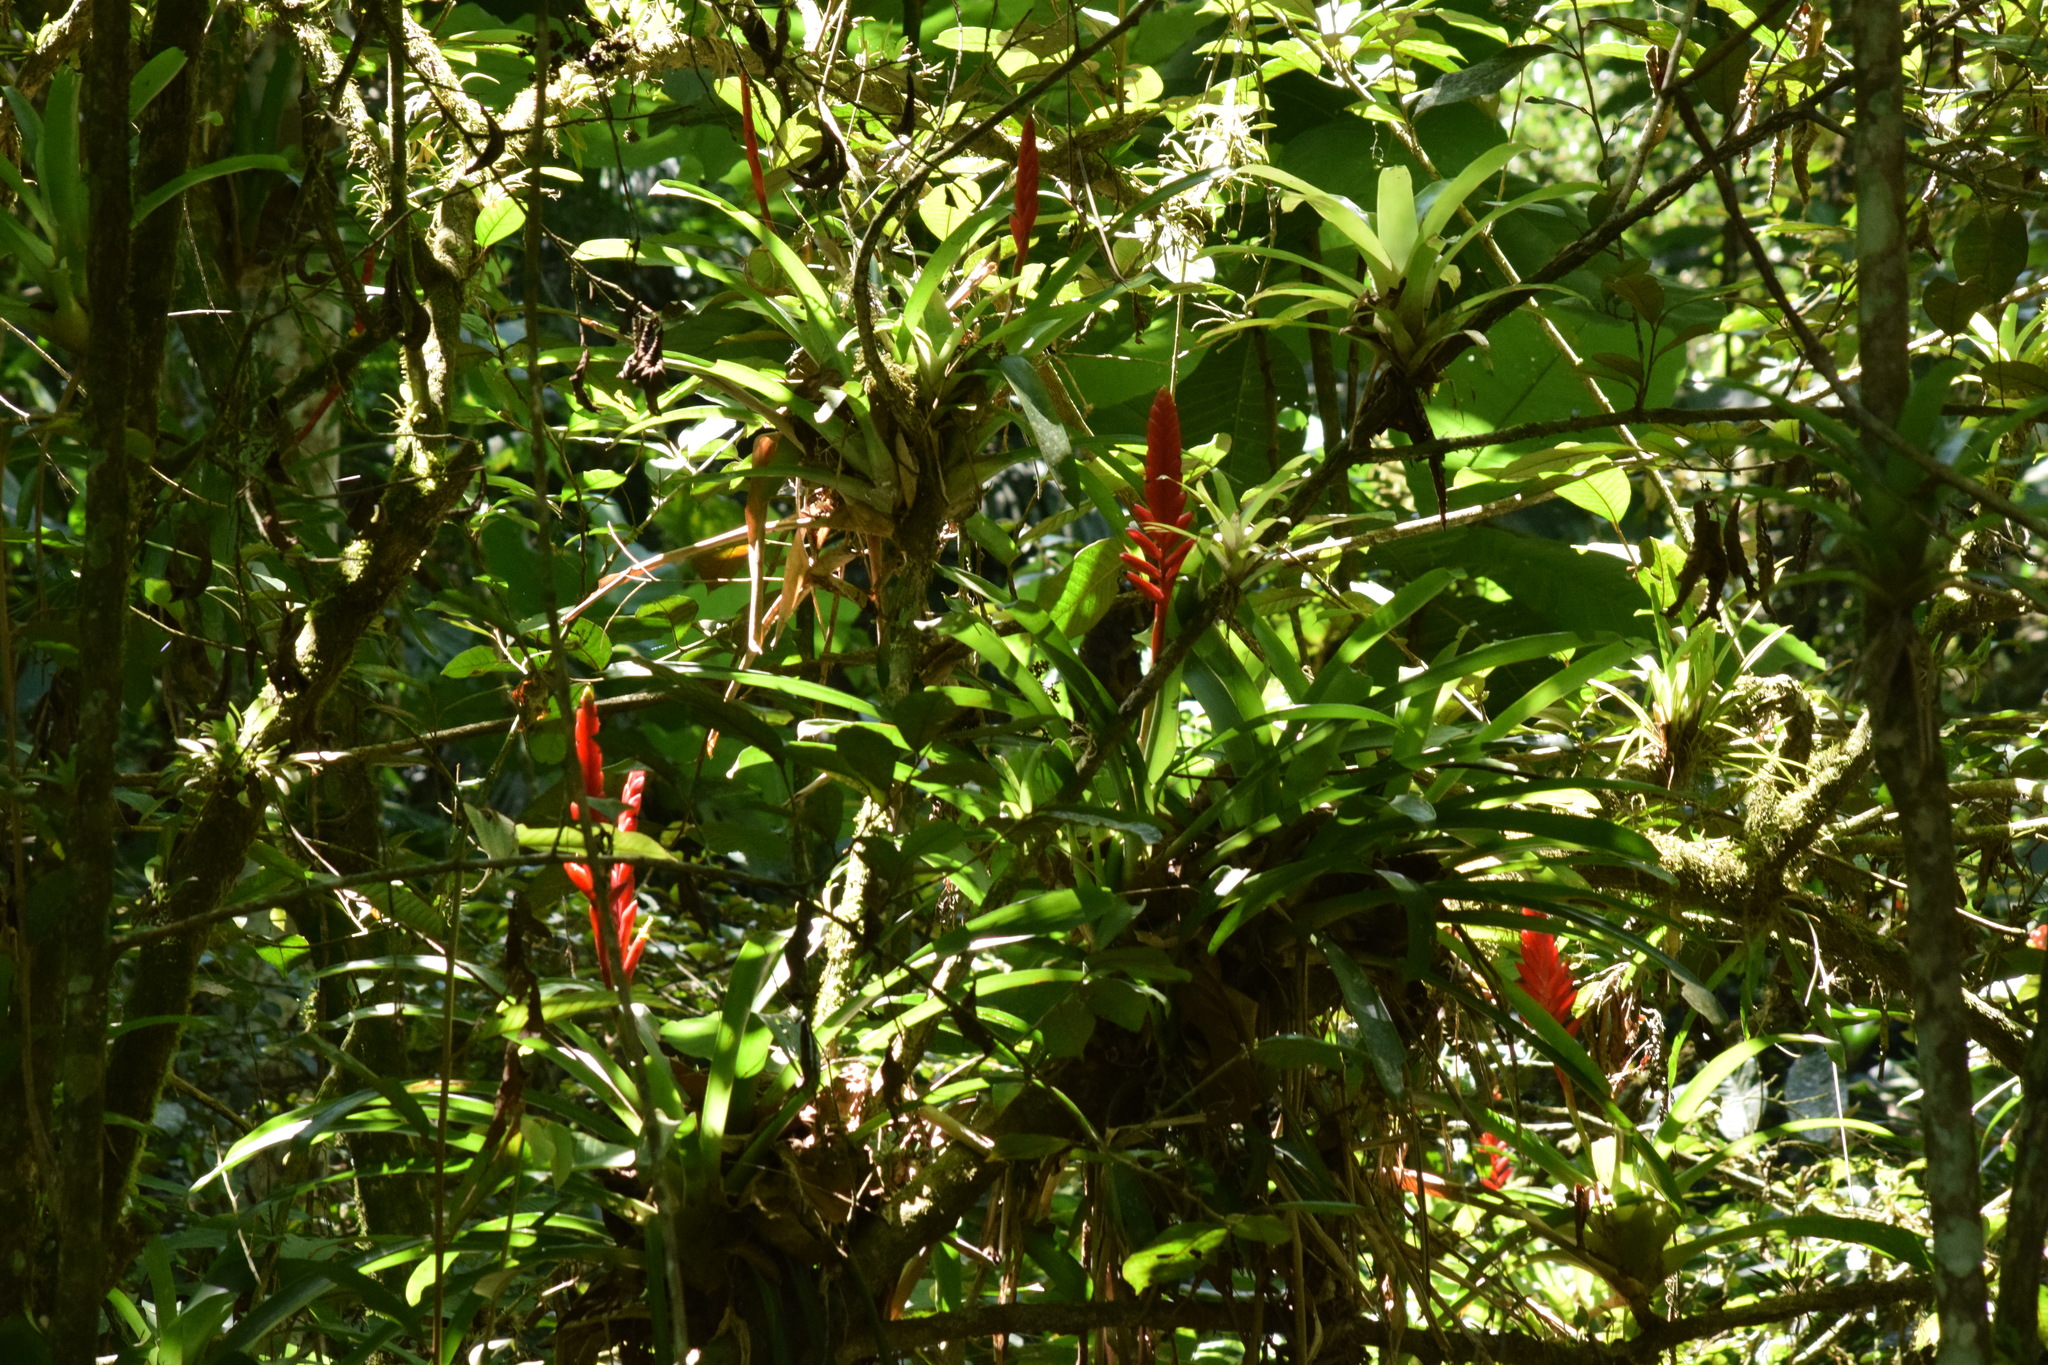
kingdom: Plantae
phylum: Tracheophyta
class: Liliopsida
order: Poales
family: Bromeliaceae
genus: Vriesea
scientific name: Vriesea ensiformis
